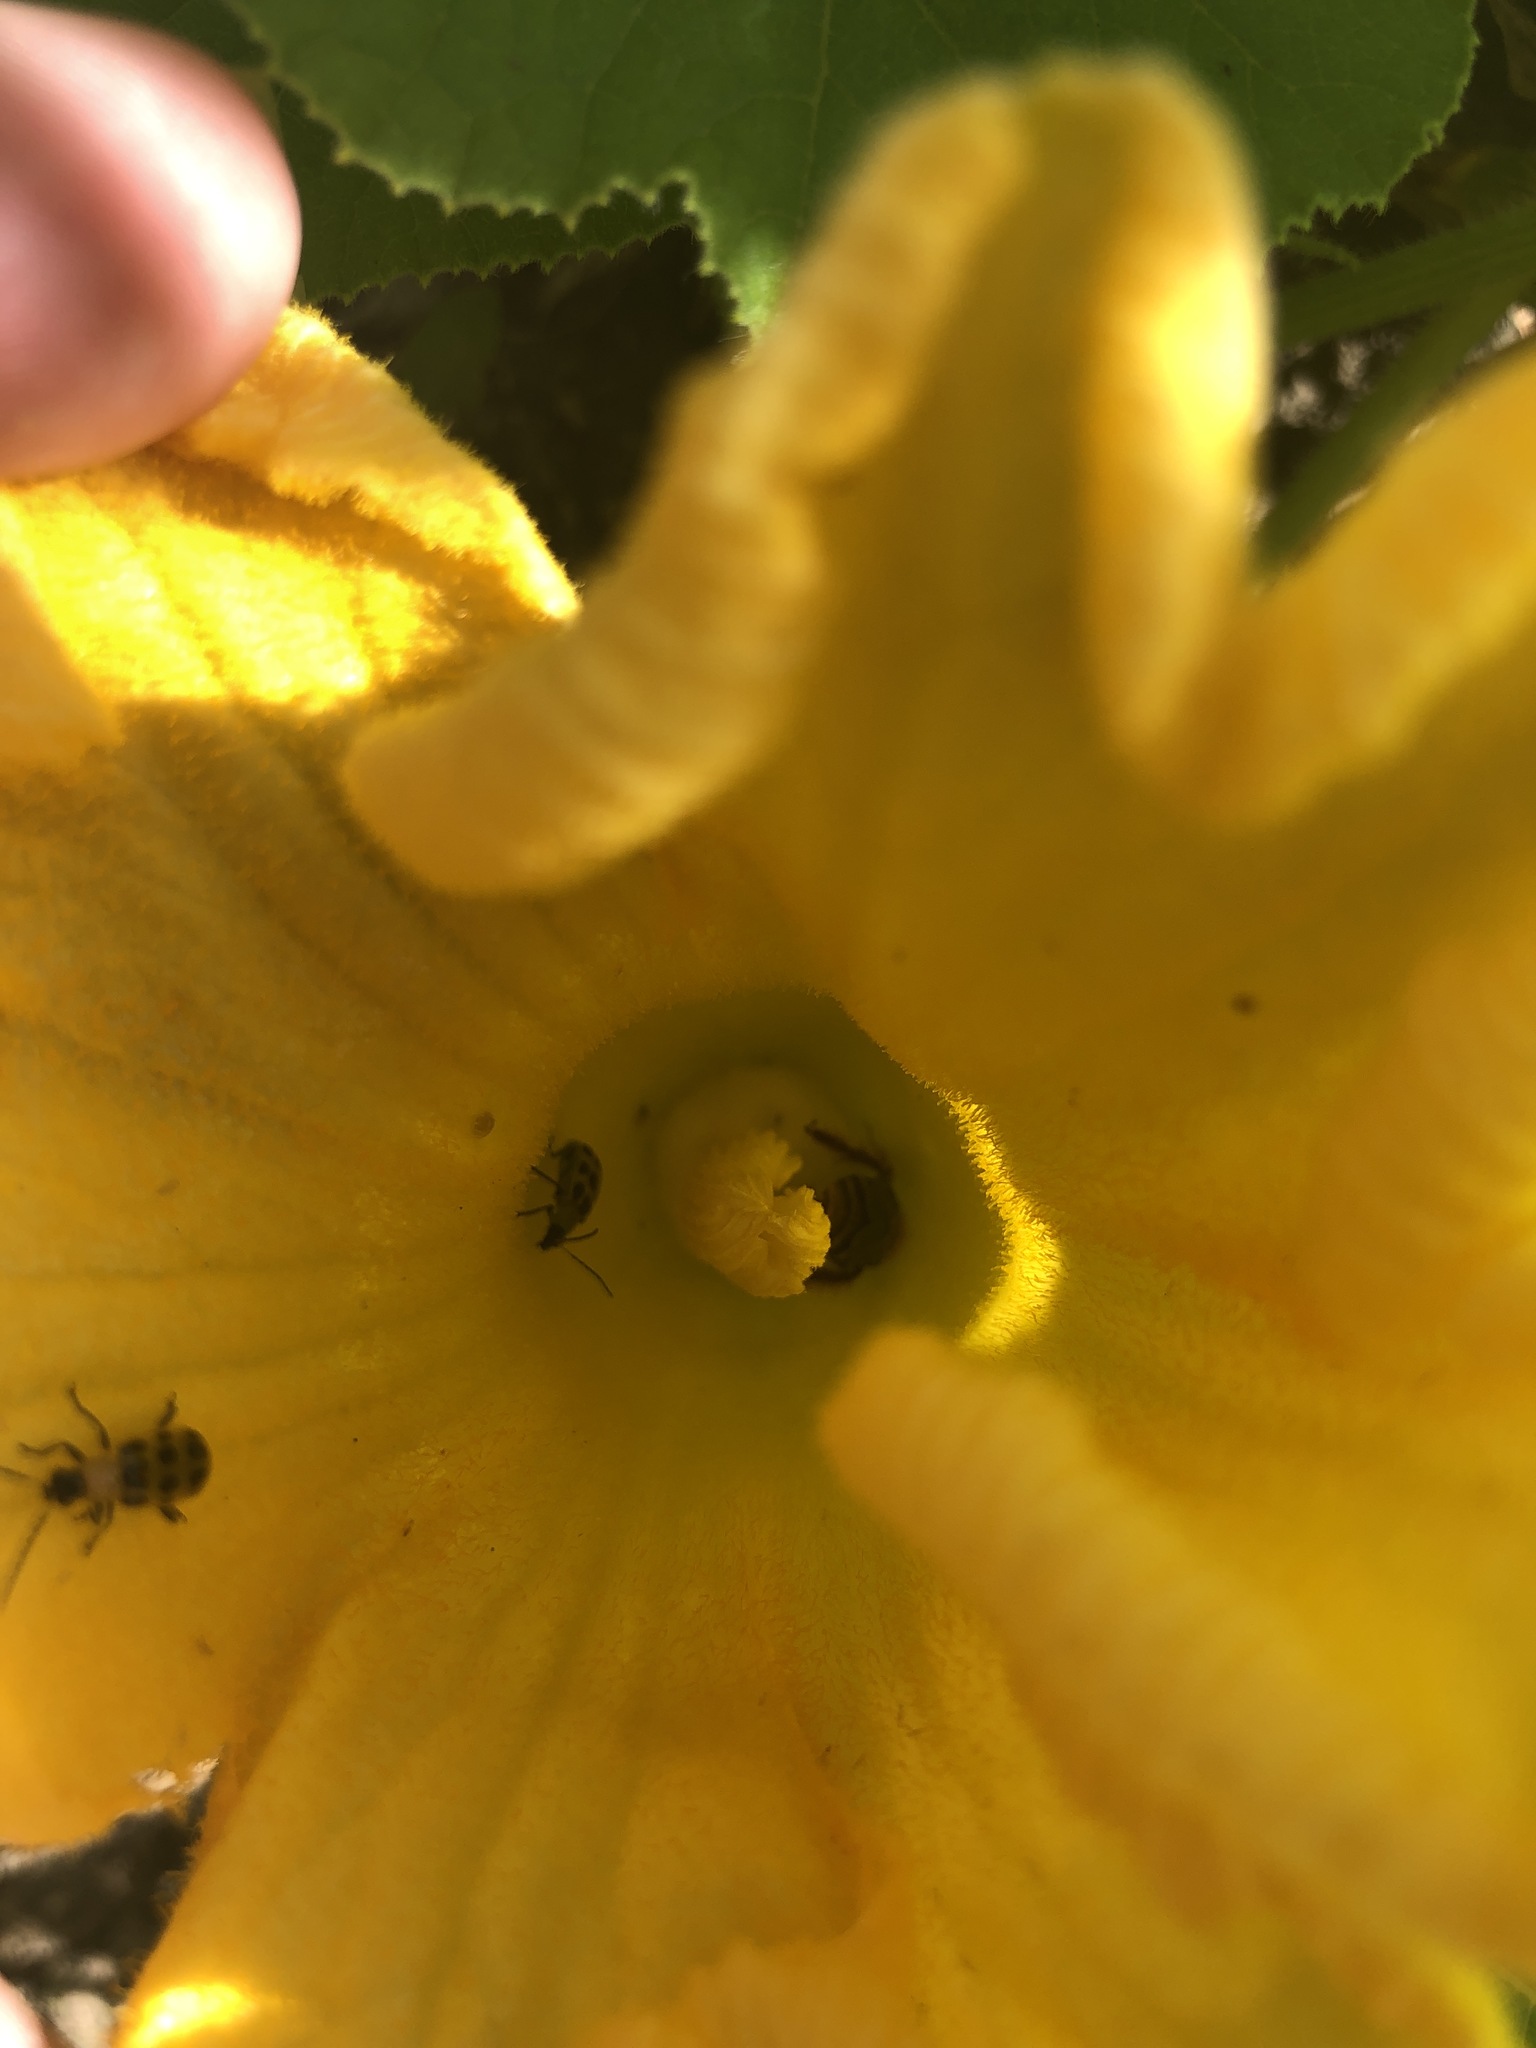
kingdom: Animalia
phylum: Arthropoda
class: Insecta
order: Coleoptera
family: Chrysomelidae
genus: Diabrotica
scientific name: Diabrotica undecimpunctata
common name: Spotted cucumber beetle
